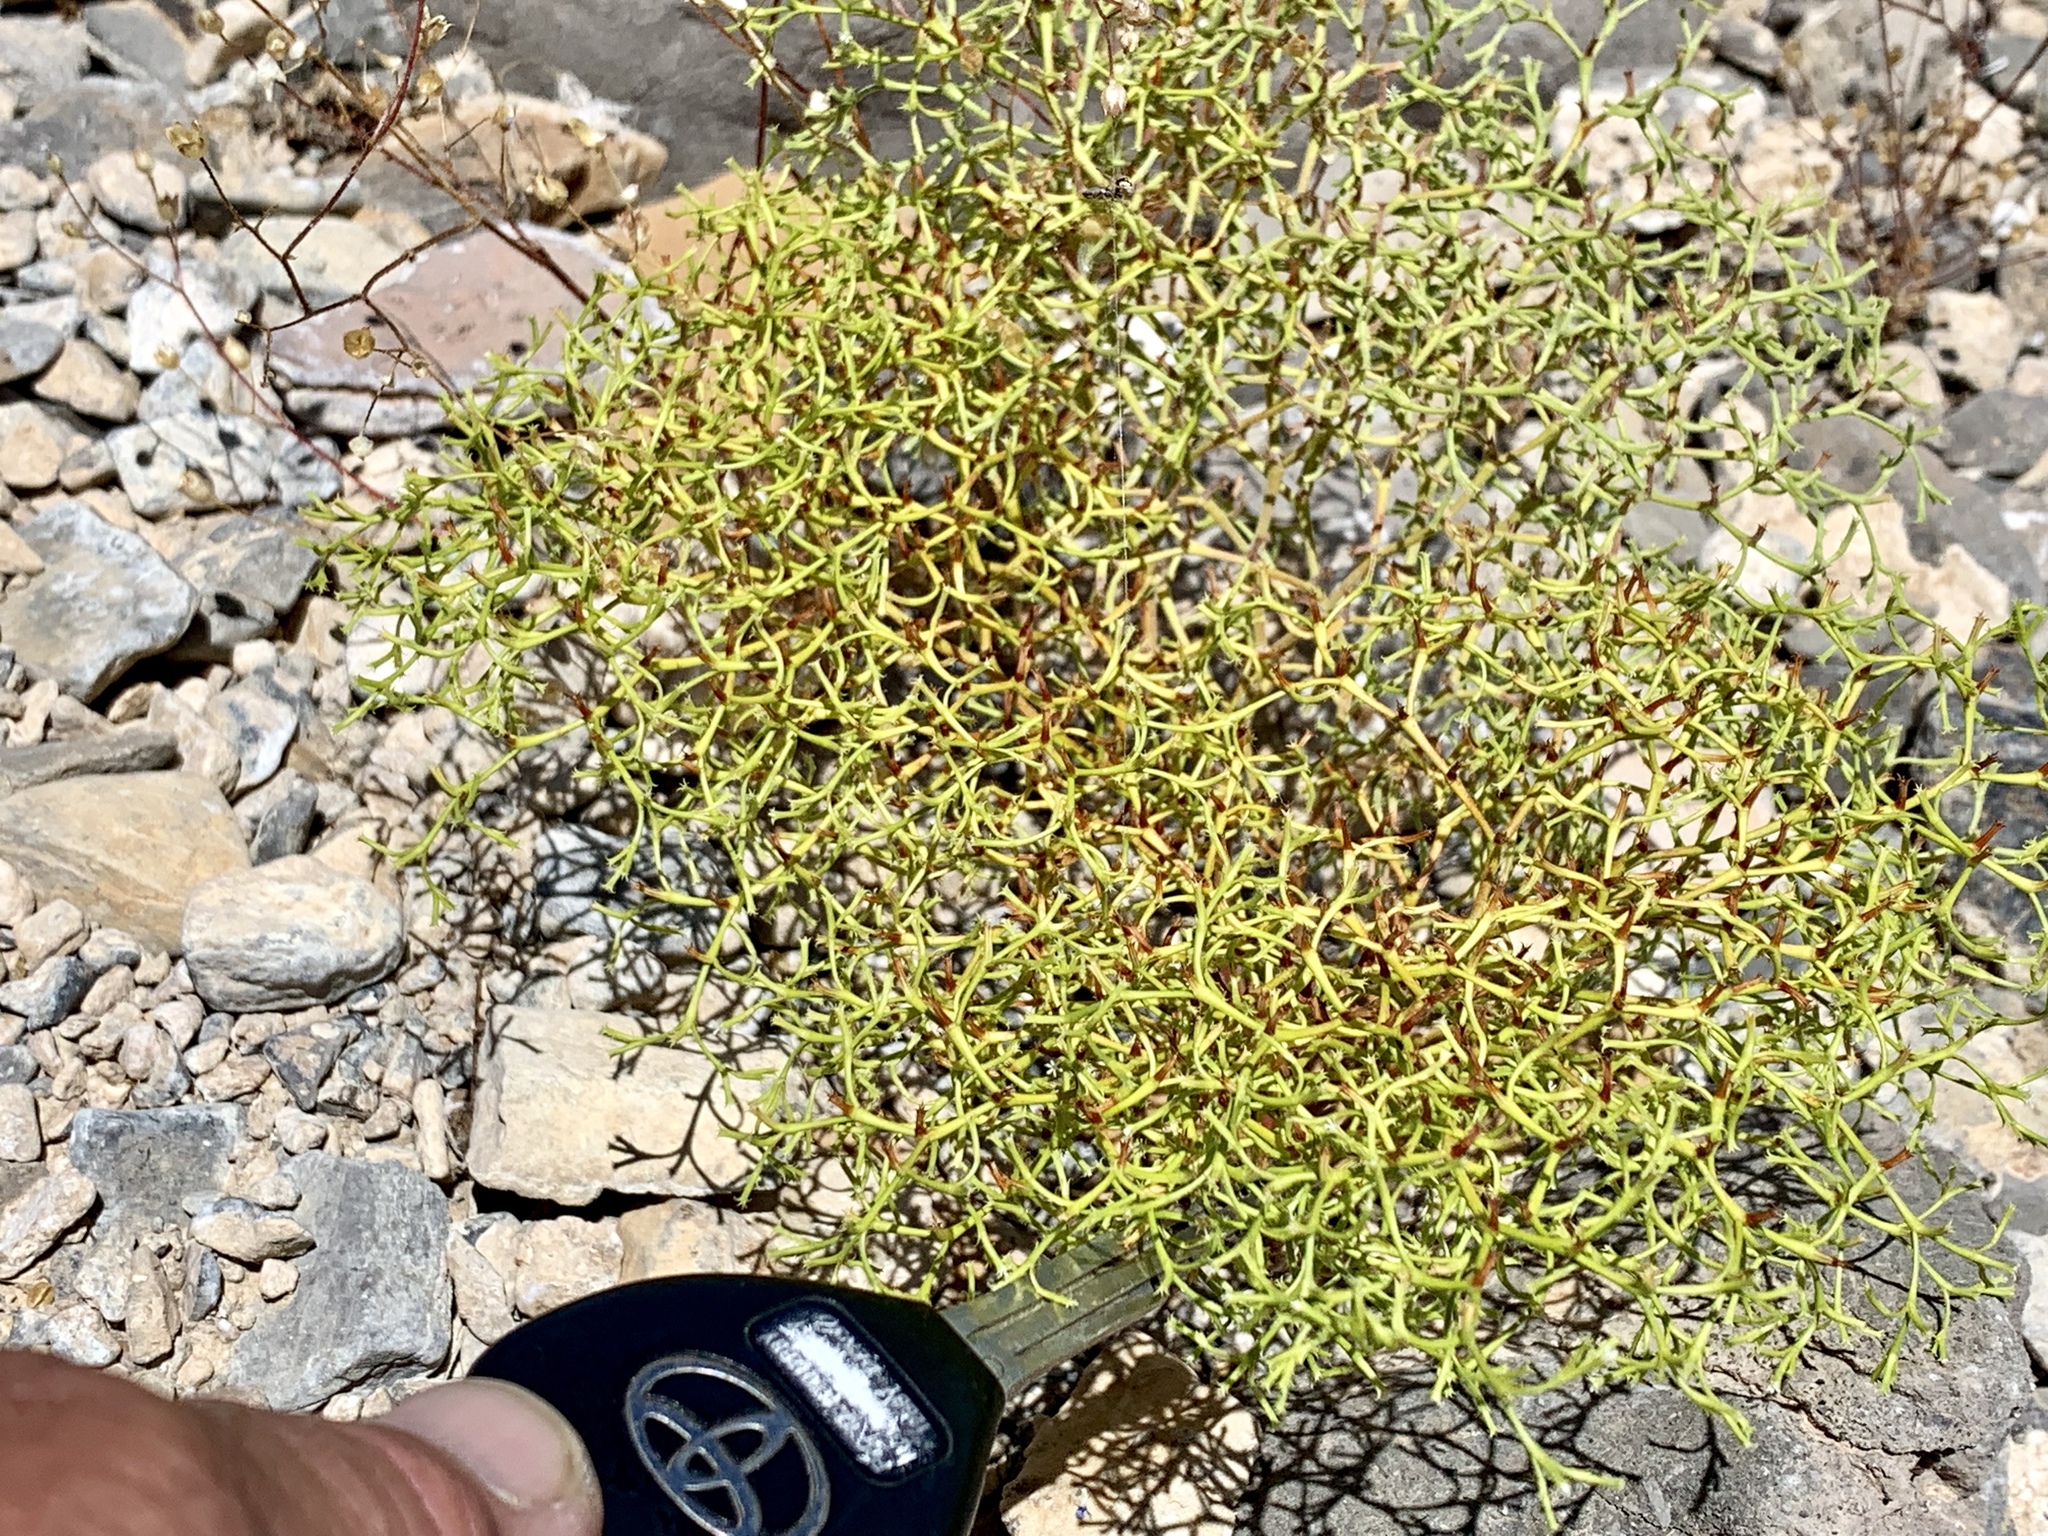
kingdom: Plantae
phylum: Tracheophyta
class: Magnoliopsida
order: Caryophyllales
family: Polygonaceae
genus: Chorizanthe
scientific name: Chorizanthe brevicornu
